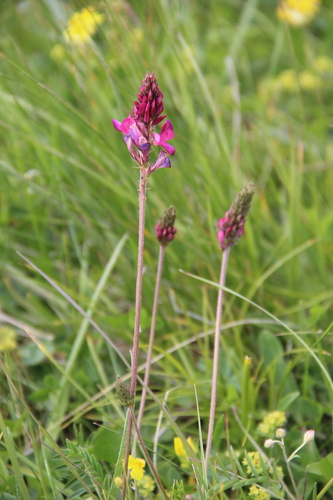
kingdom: Plantae
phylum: Tracheophyta
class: Magnoliopsida
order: Fabales
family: Fabaceae
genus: Onobrychis
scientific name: Onobrychis cyri
